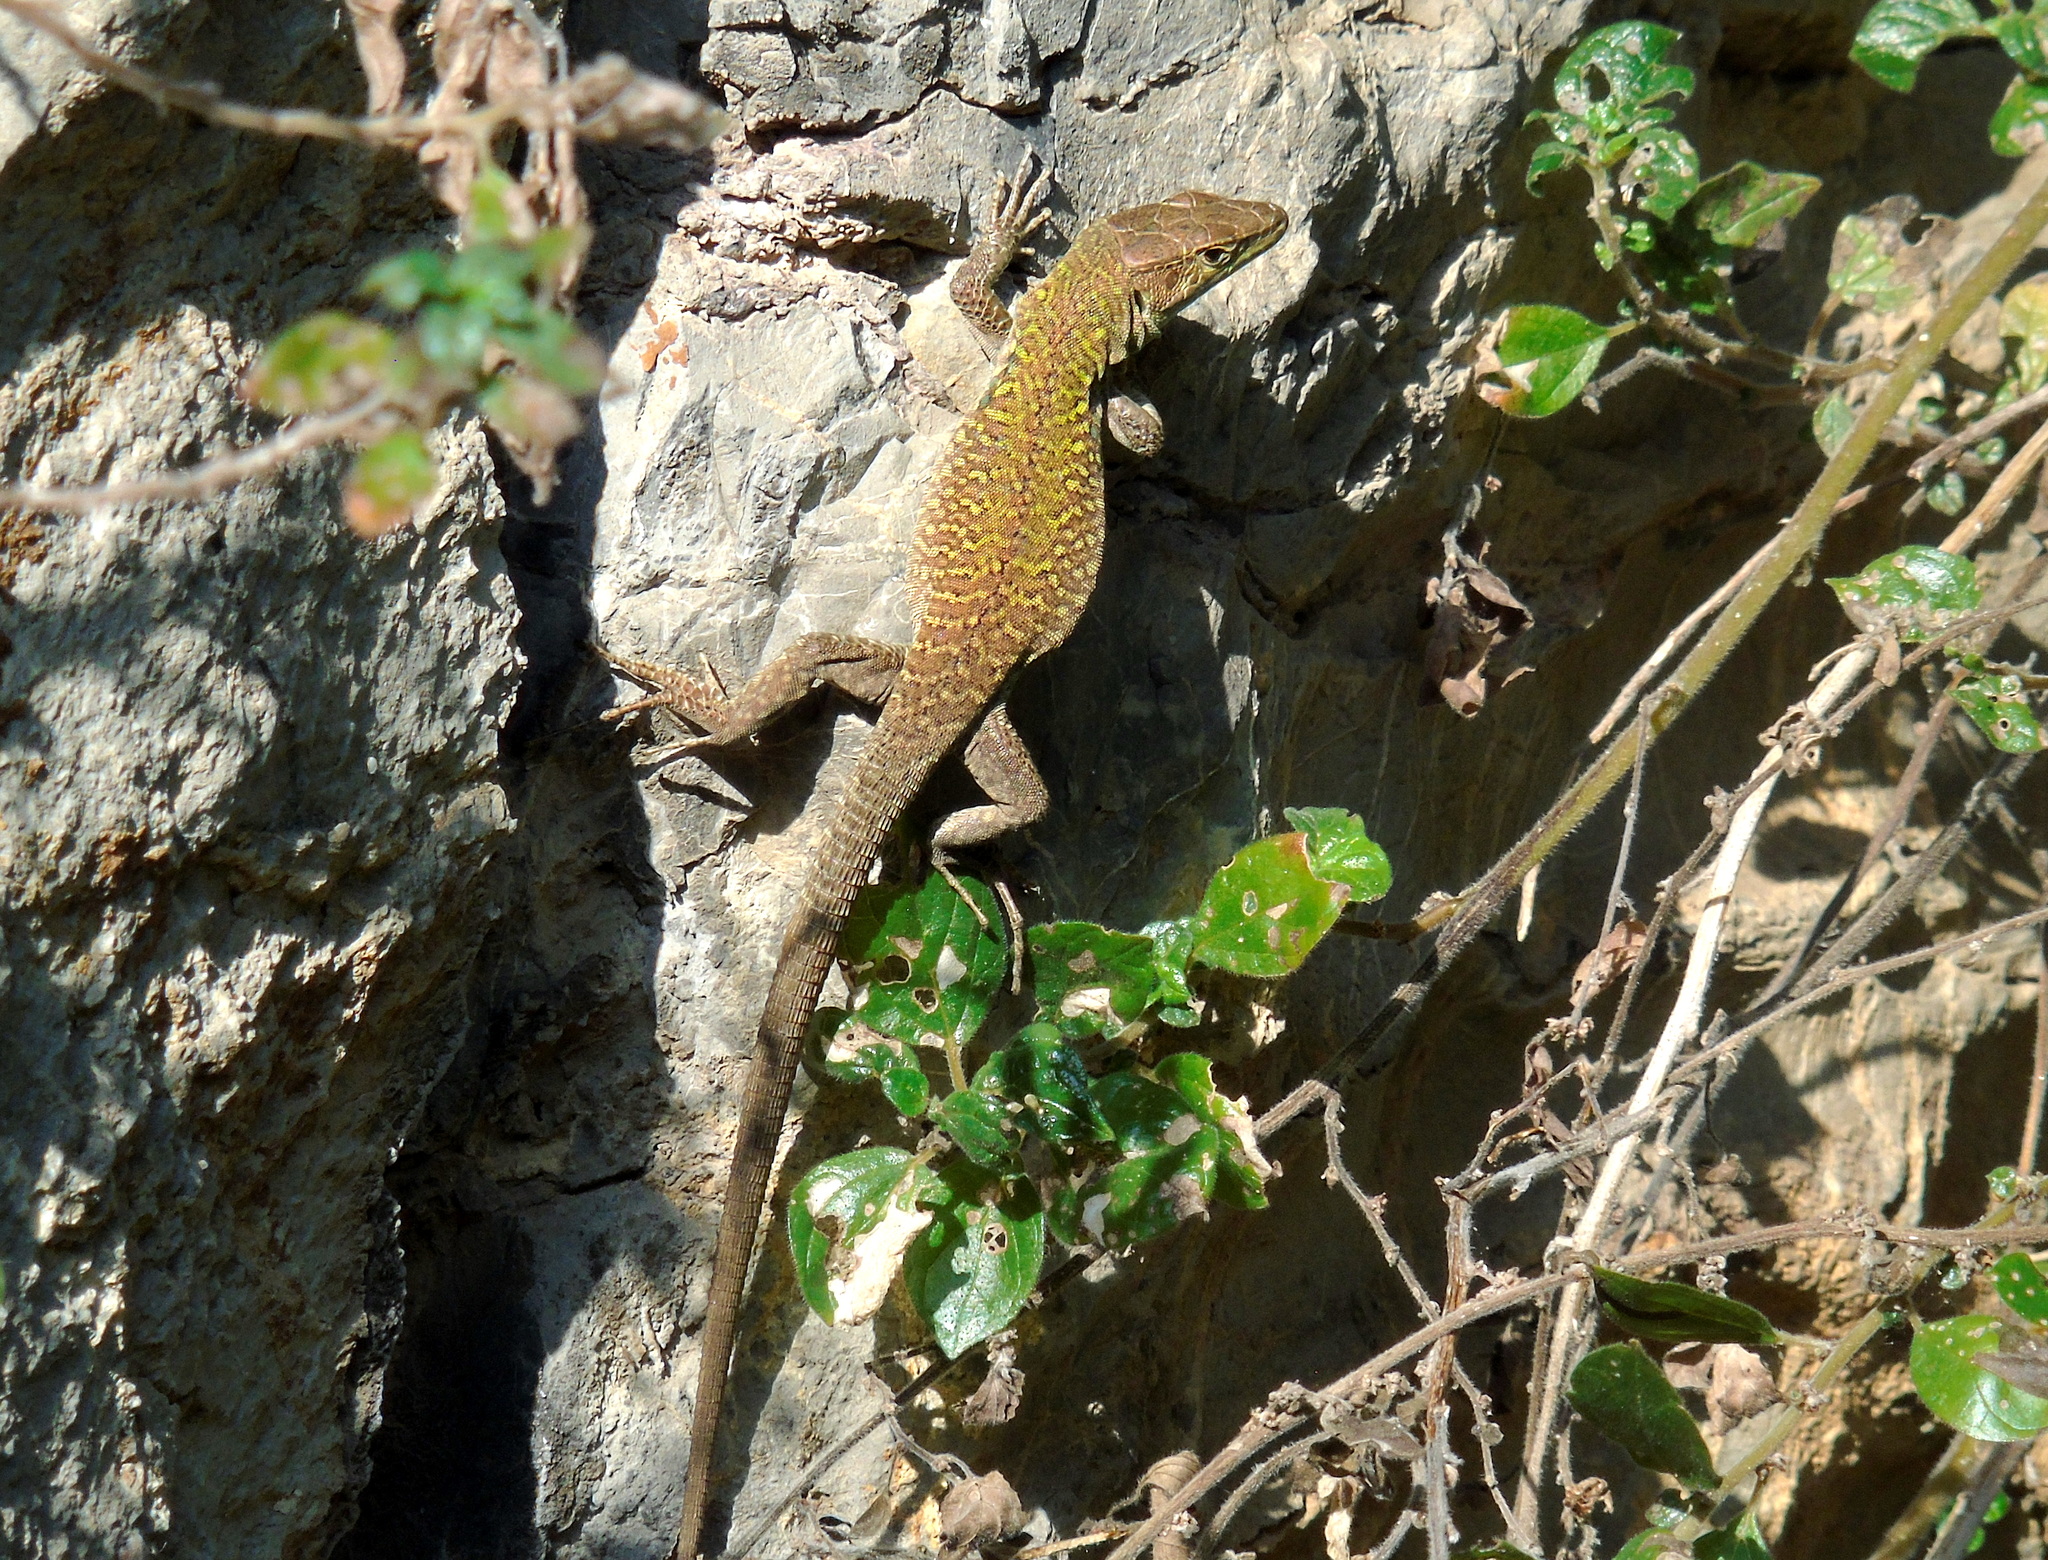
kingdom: Animalia
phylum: Chordata
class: Squamata
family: Lacertidae
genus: Podarcis
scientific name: Podarcis siculus
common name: Italian wall lizard
